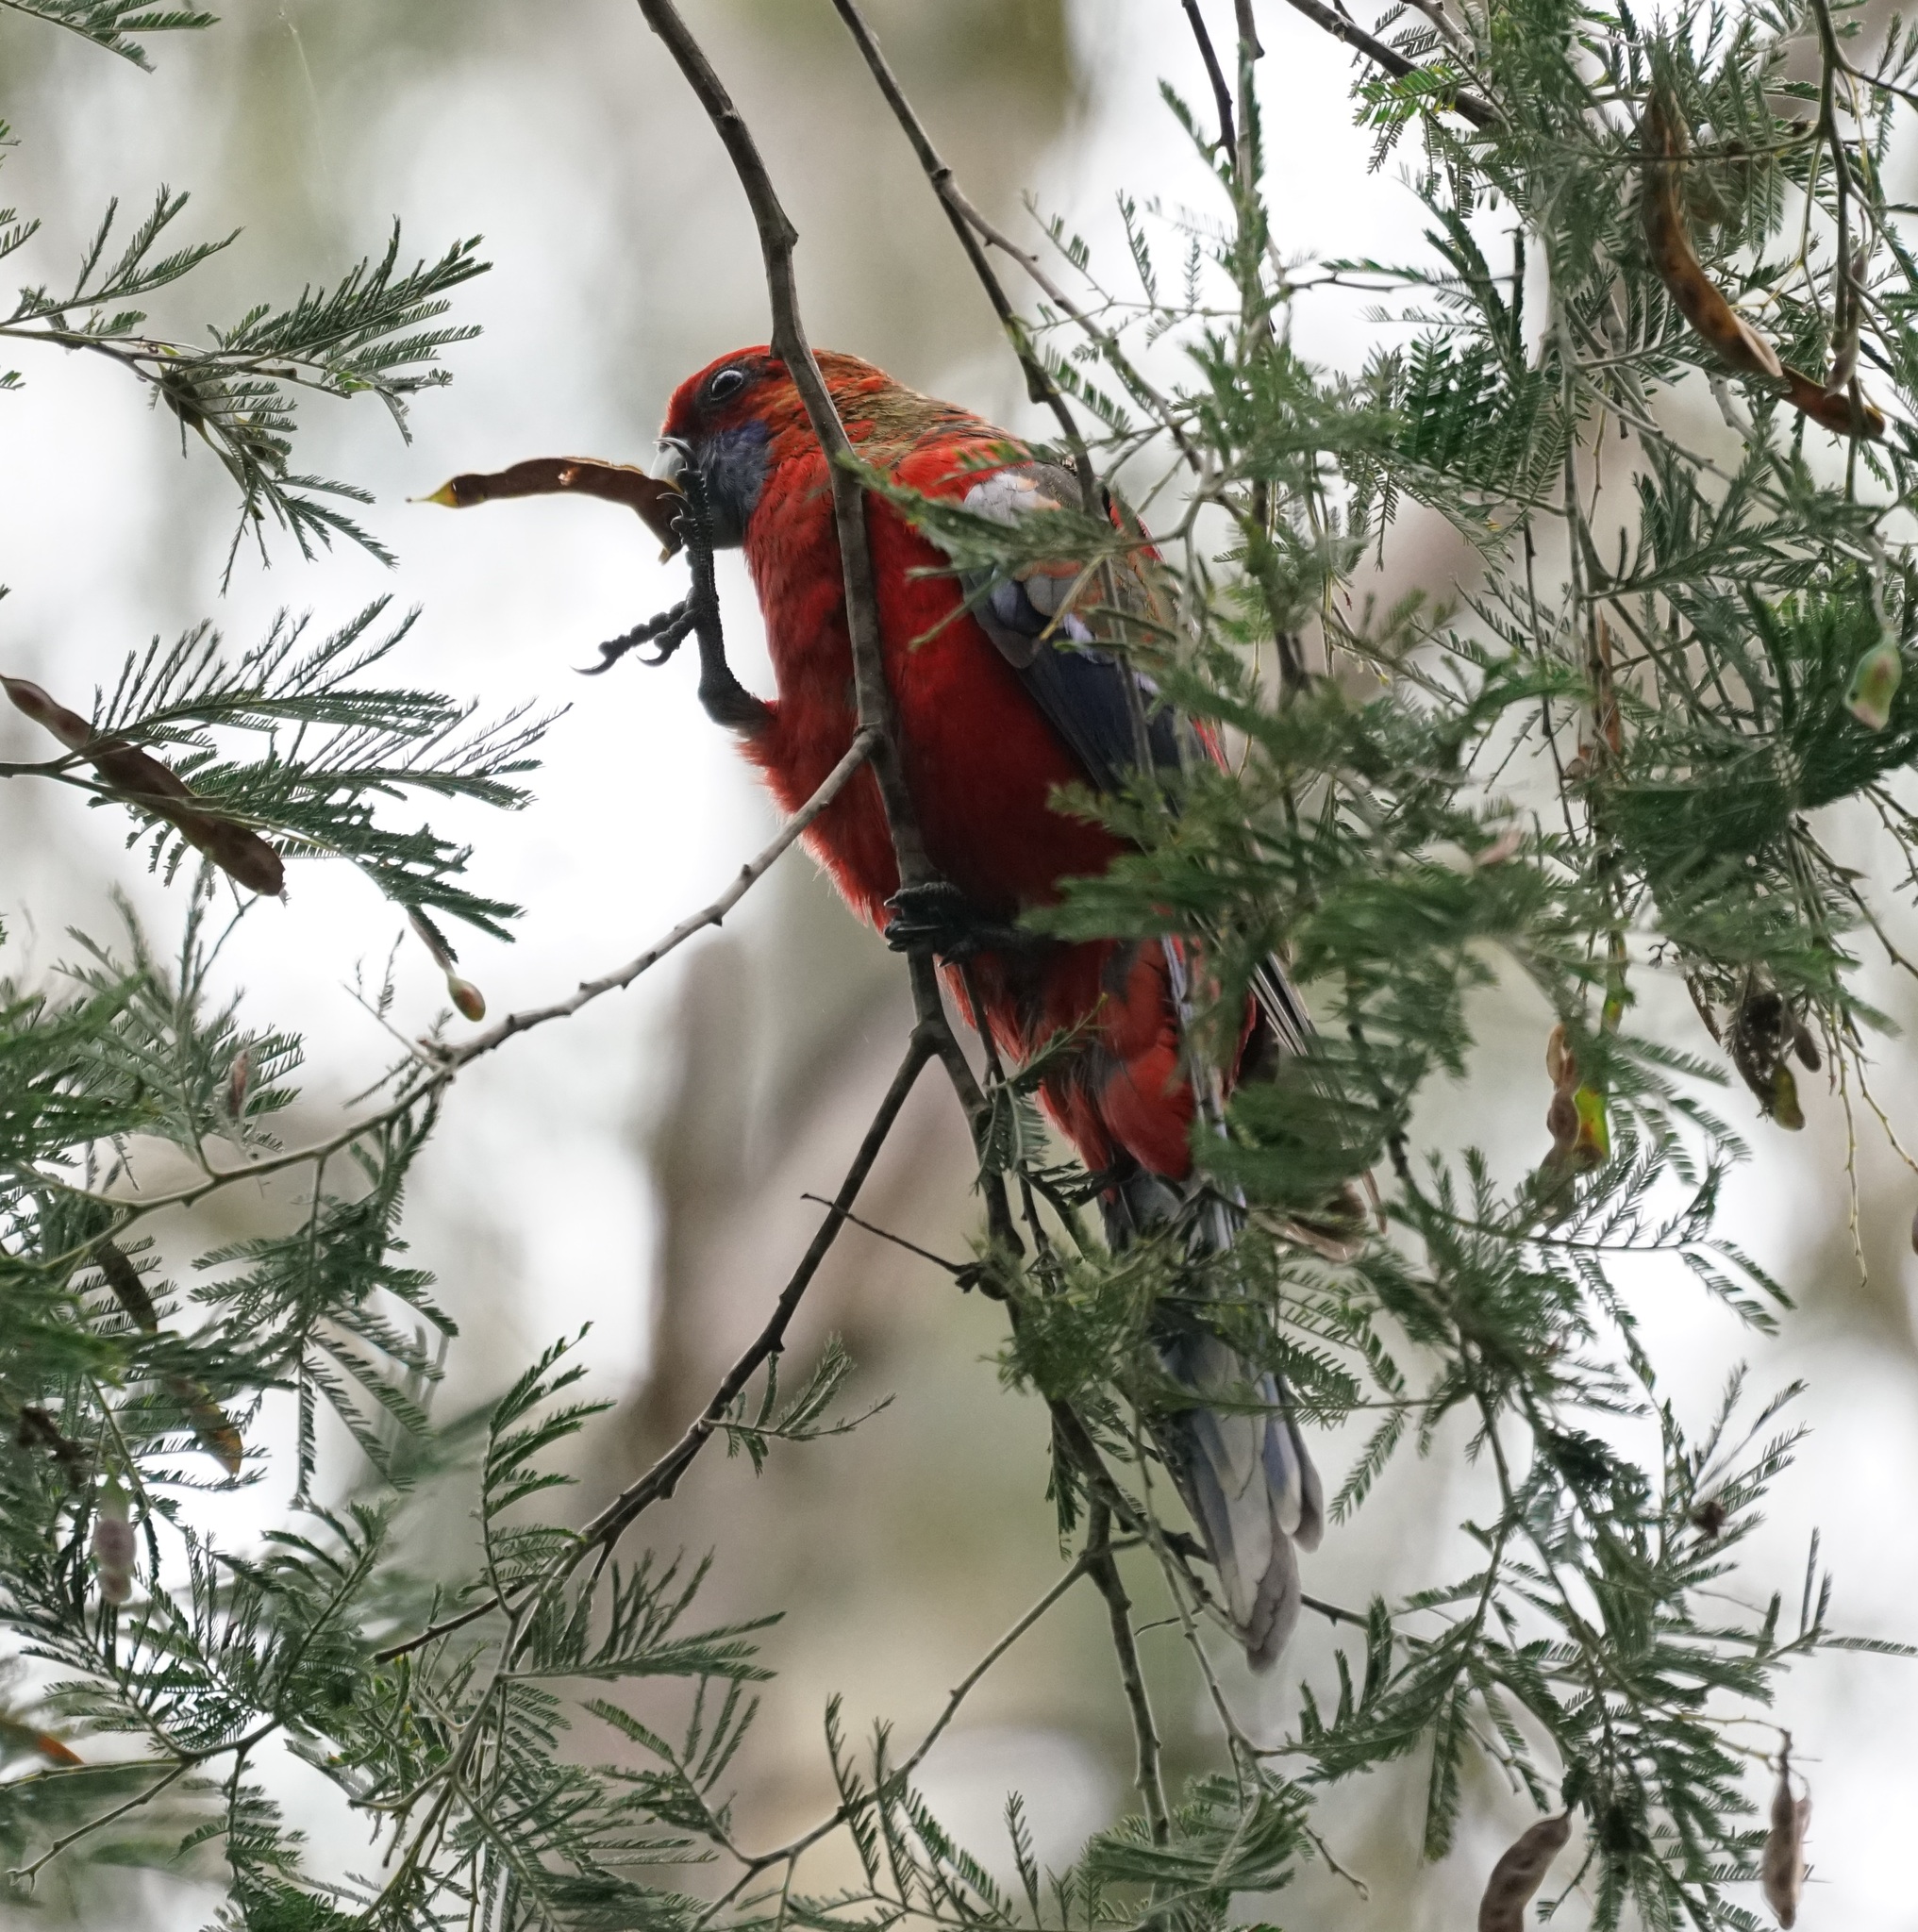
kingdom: Animalia
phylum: Chordata
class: Aves
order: Psittaciformes
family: Psittacidae
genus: Platycercus
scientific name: Platycercus elegans
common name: Crimson rosella
